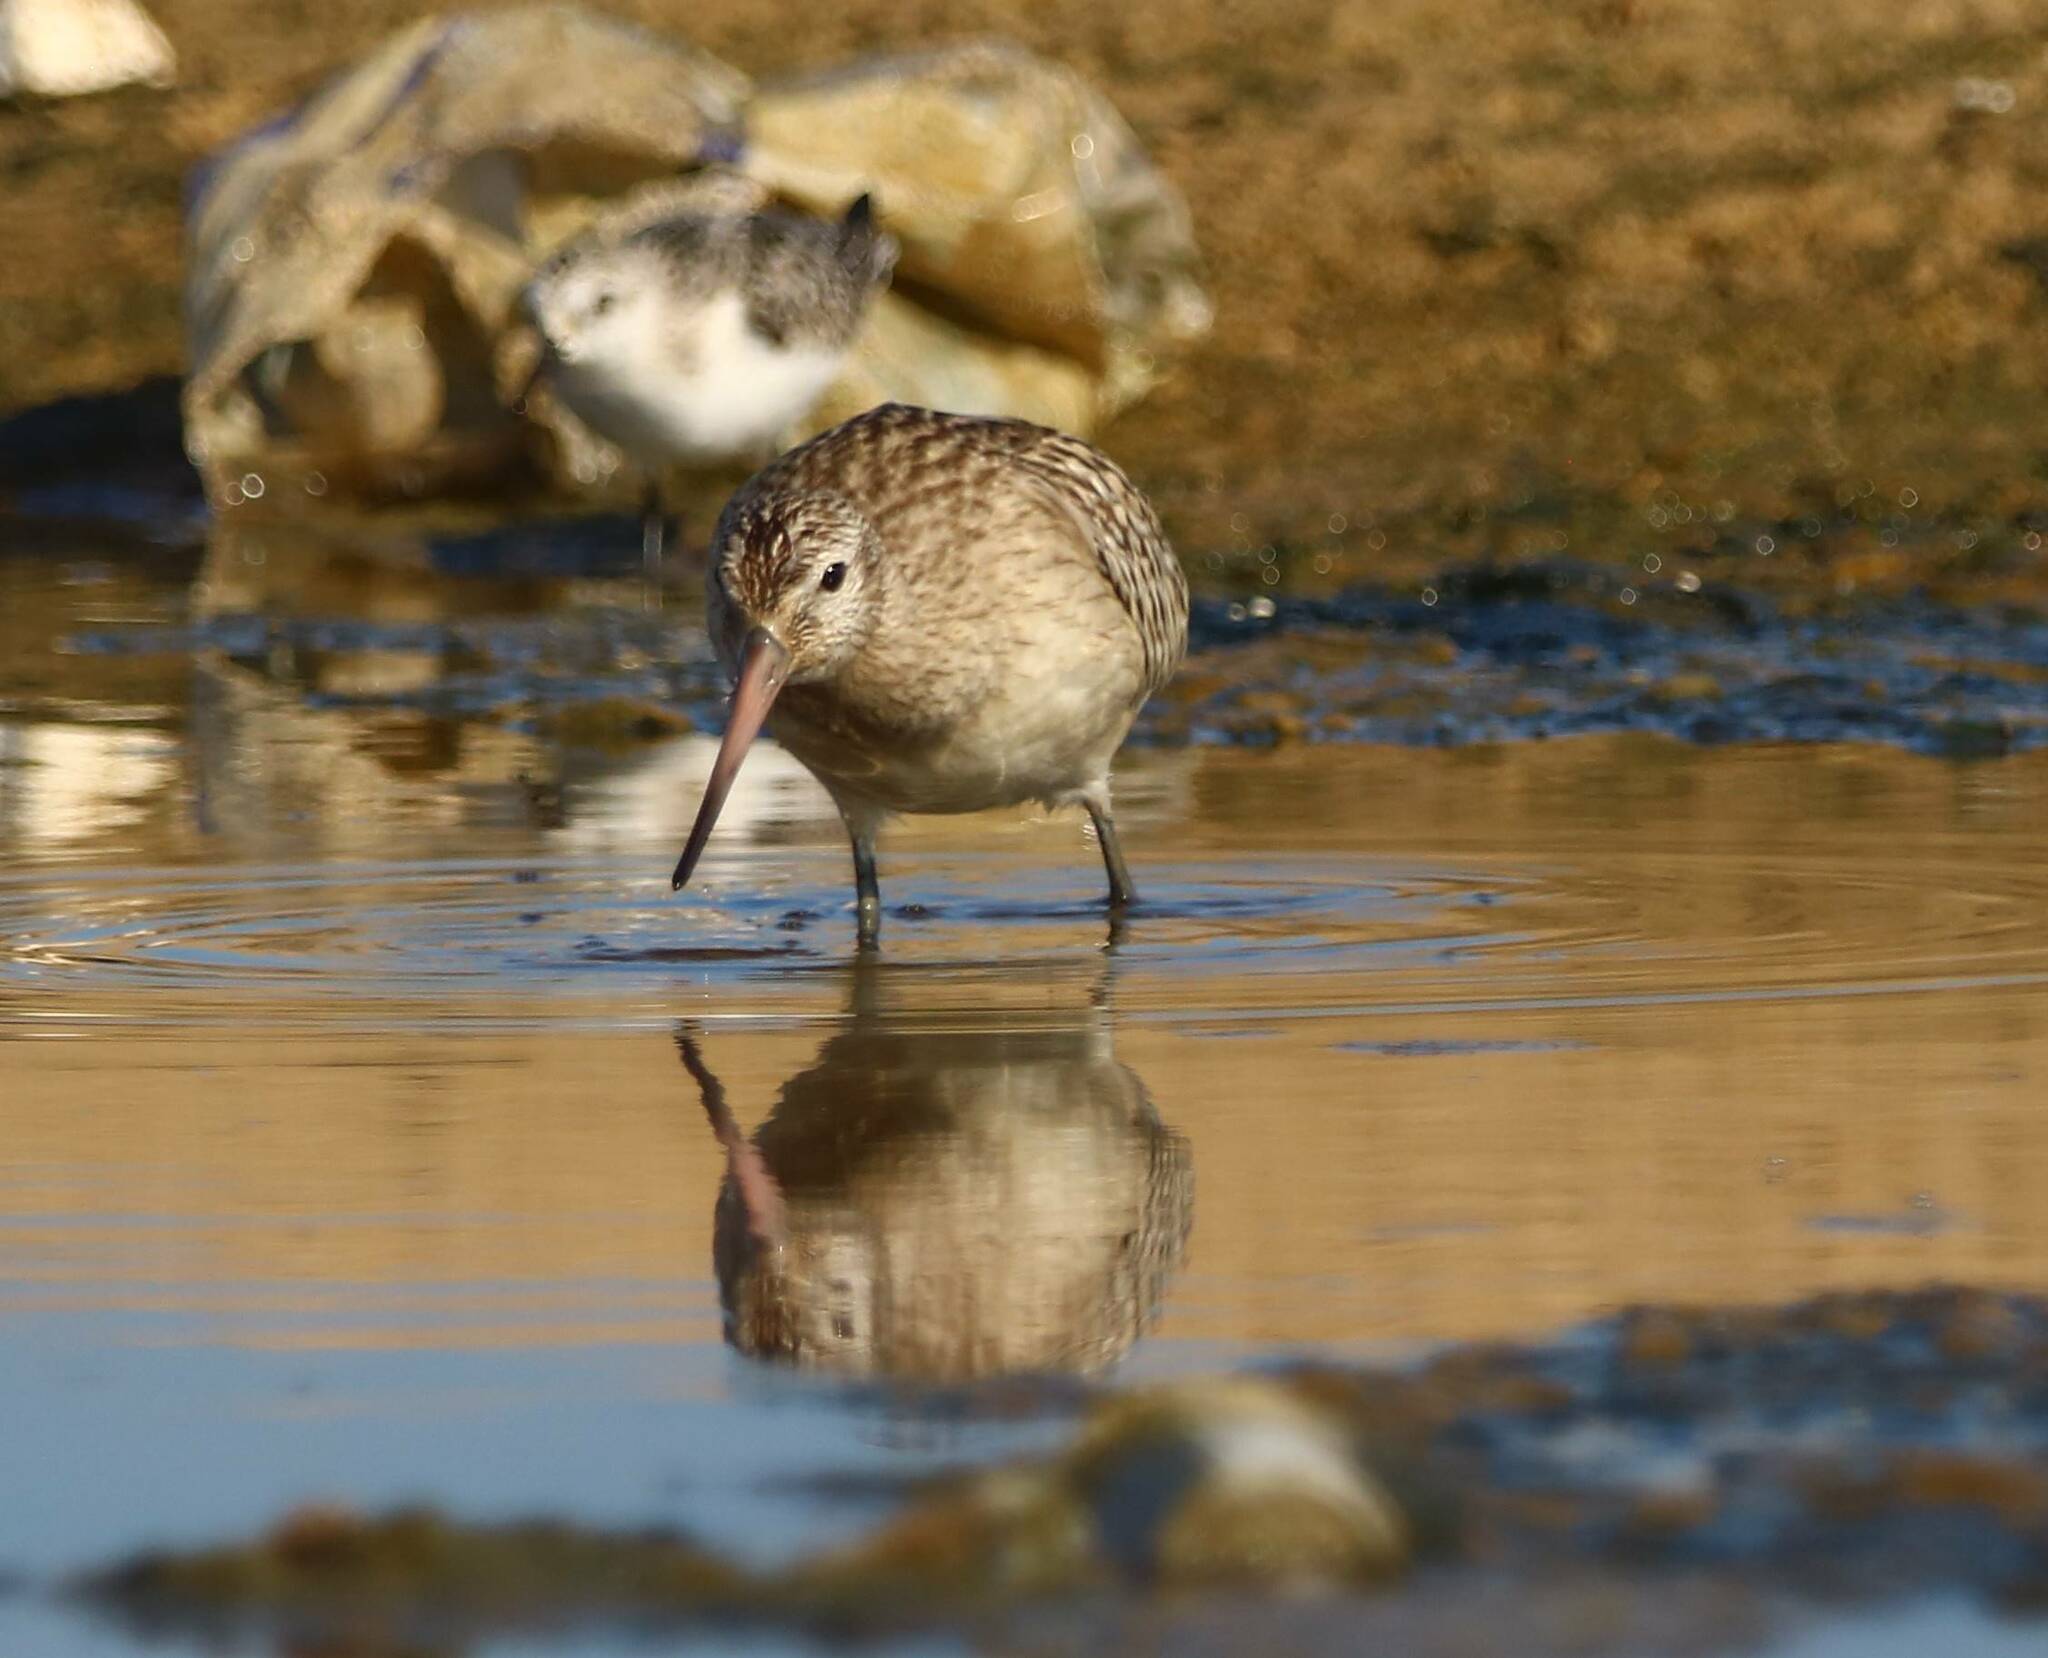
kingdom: Animalia
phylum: Chordata
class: Aves
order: Charadriiformes
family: Scolopacidae
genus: Limosa
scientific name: Limosa lapponica
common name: Bar-tailed godwit
